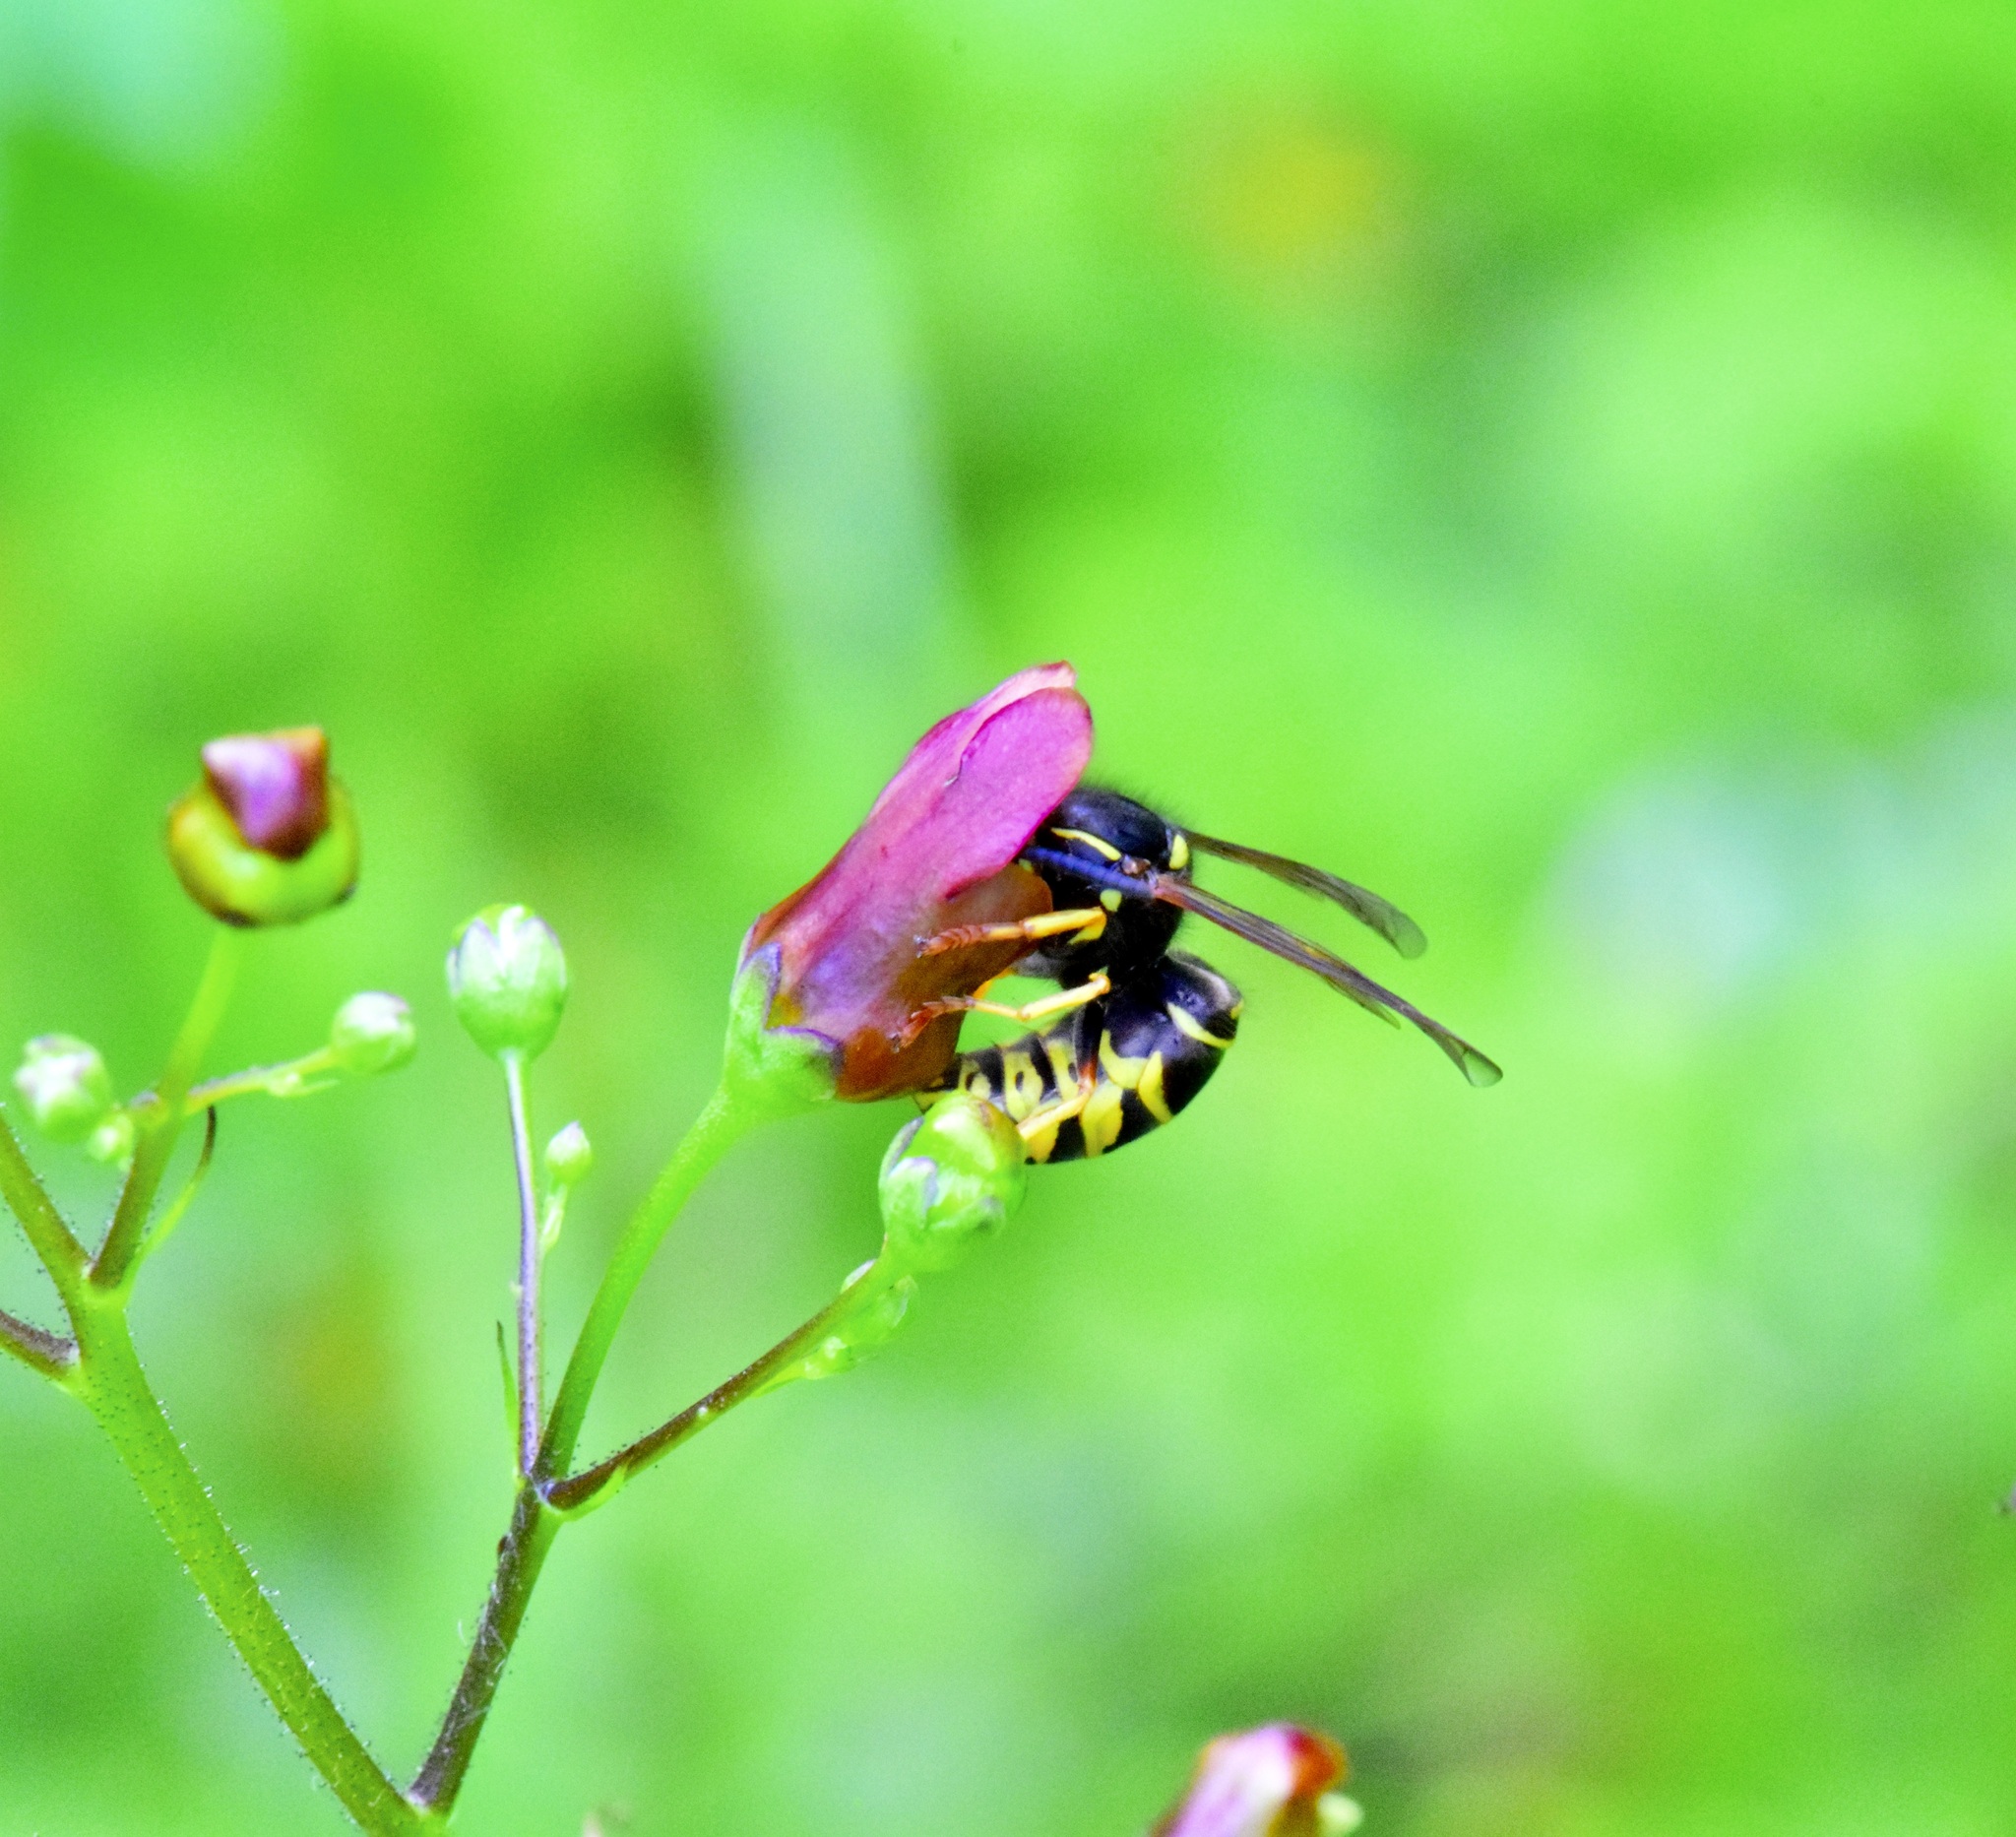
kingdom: Animalia
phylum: Arthropoda
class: Insecta
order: Hymenoptera
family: Vespidae
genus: Vespula
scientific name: Vespula vidua
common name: Widow yellowjacket
